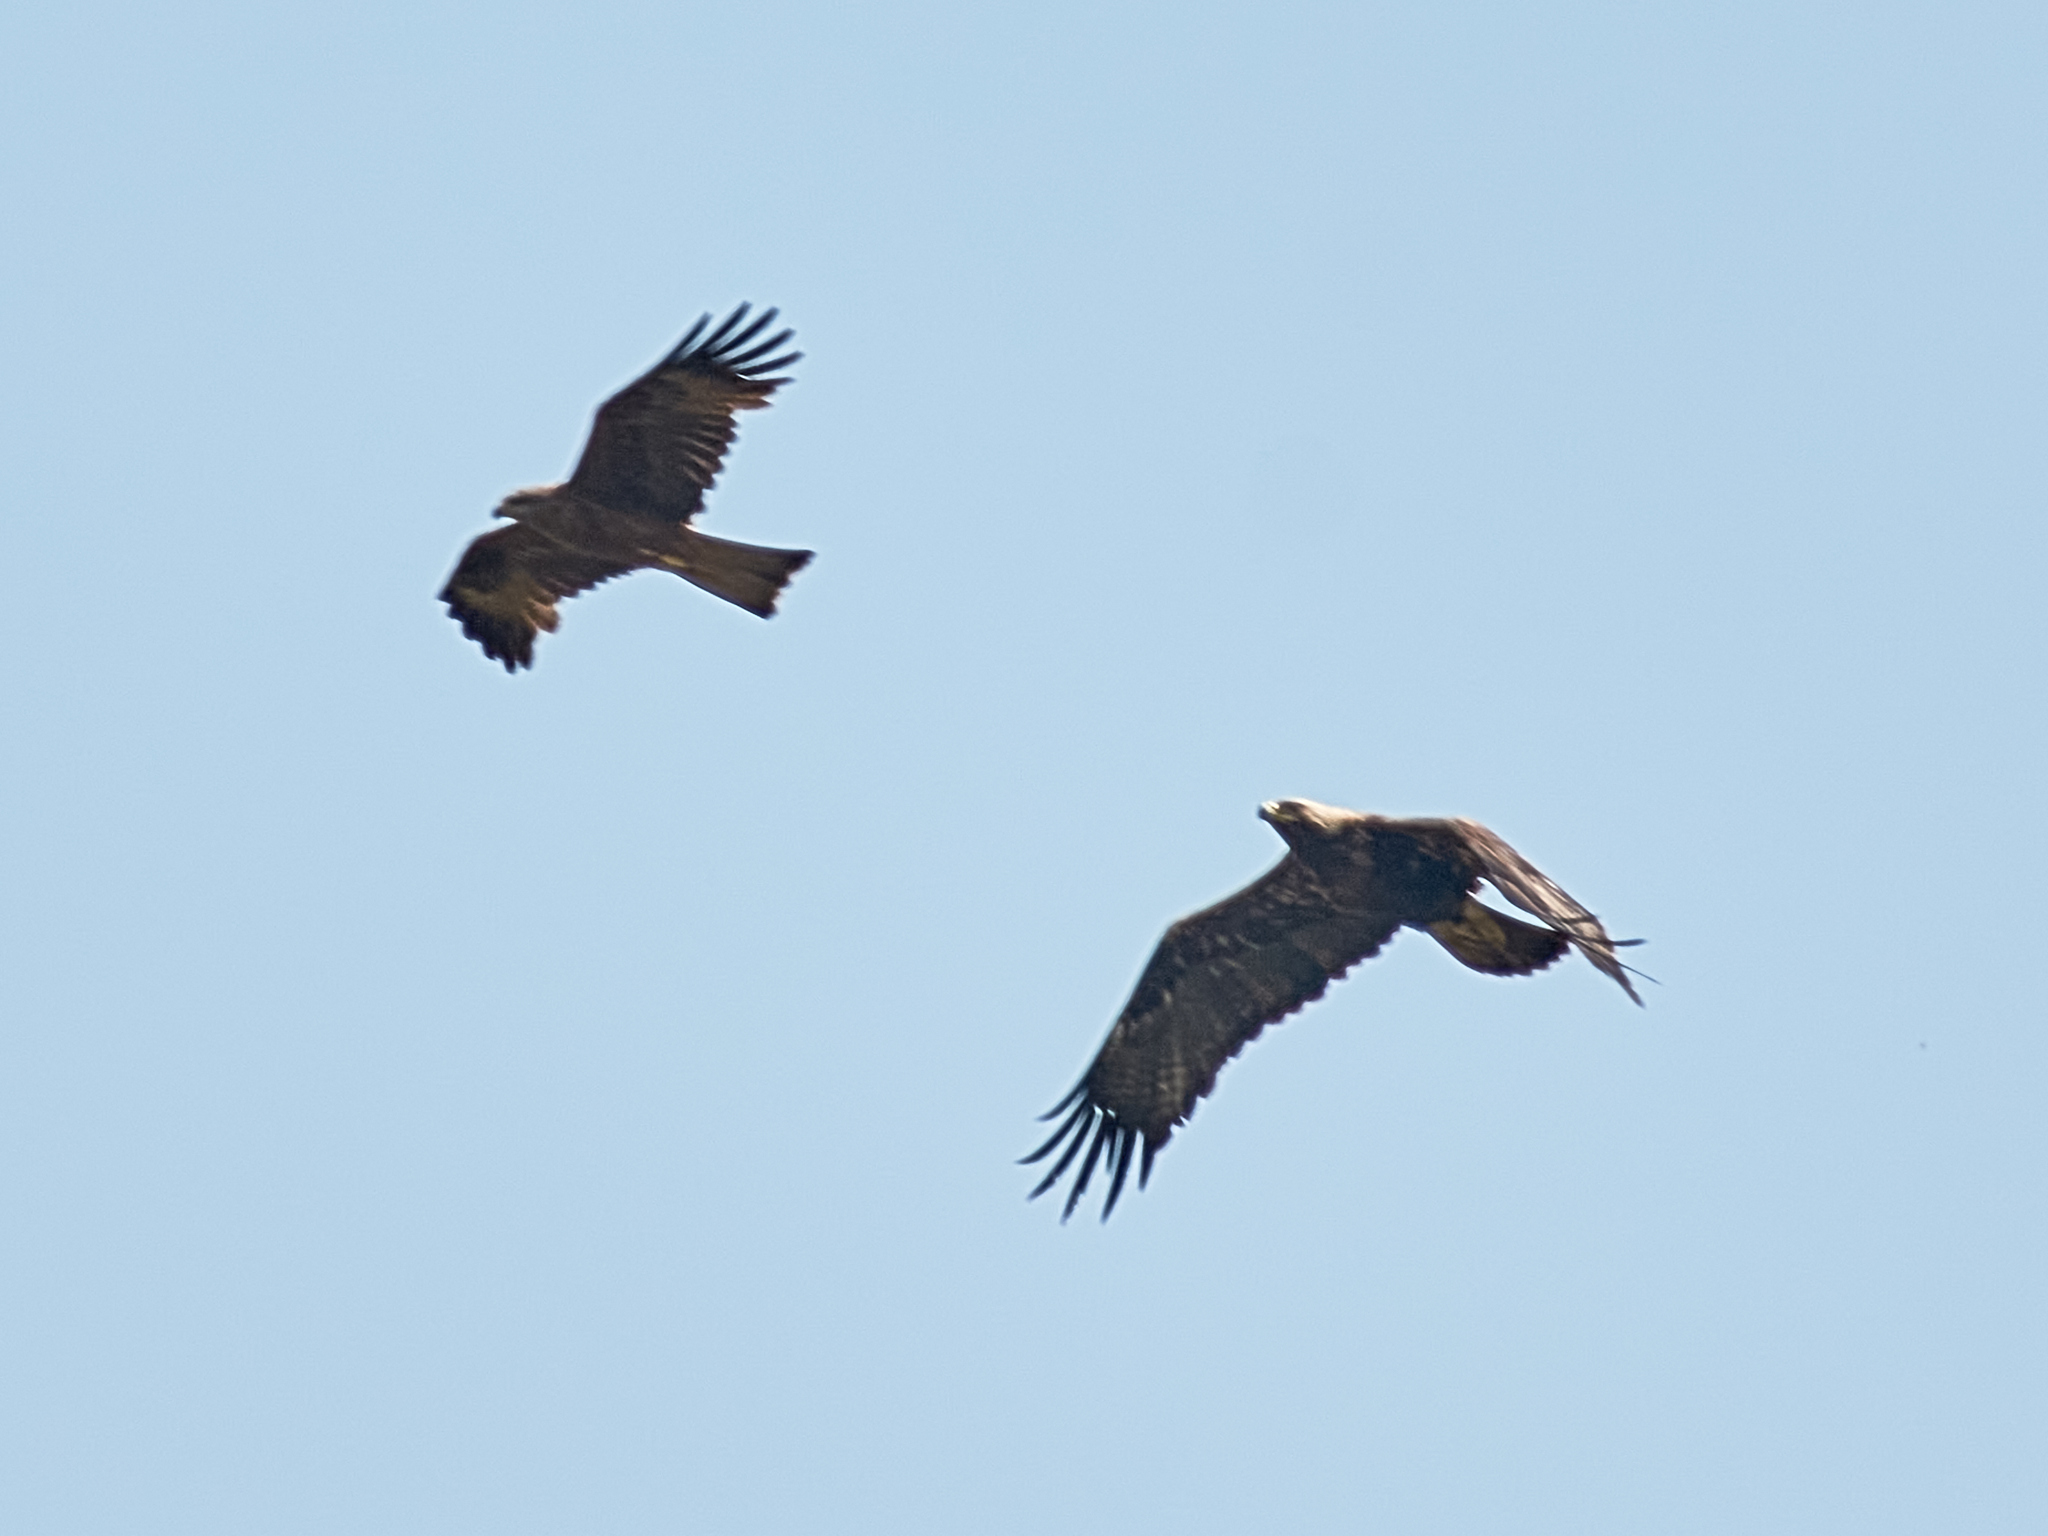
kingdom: Animalia
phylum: Chordata
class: Aves
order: Accipitriformes
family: Accipitridae
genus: Milvus
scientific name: Milvus migrans
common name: Black kite
